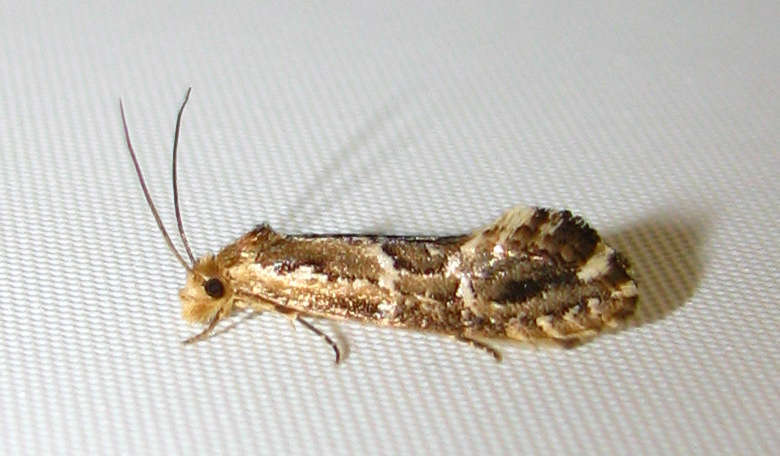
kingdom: Animalia
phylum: Arthropoda
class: Insecta
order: Lepidoptera
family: Tineidae
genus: Moerarchis
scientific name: Moerarchis inconcisella
